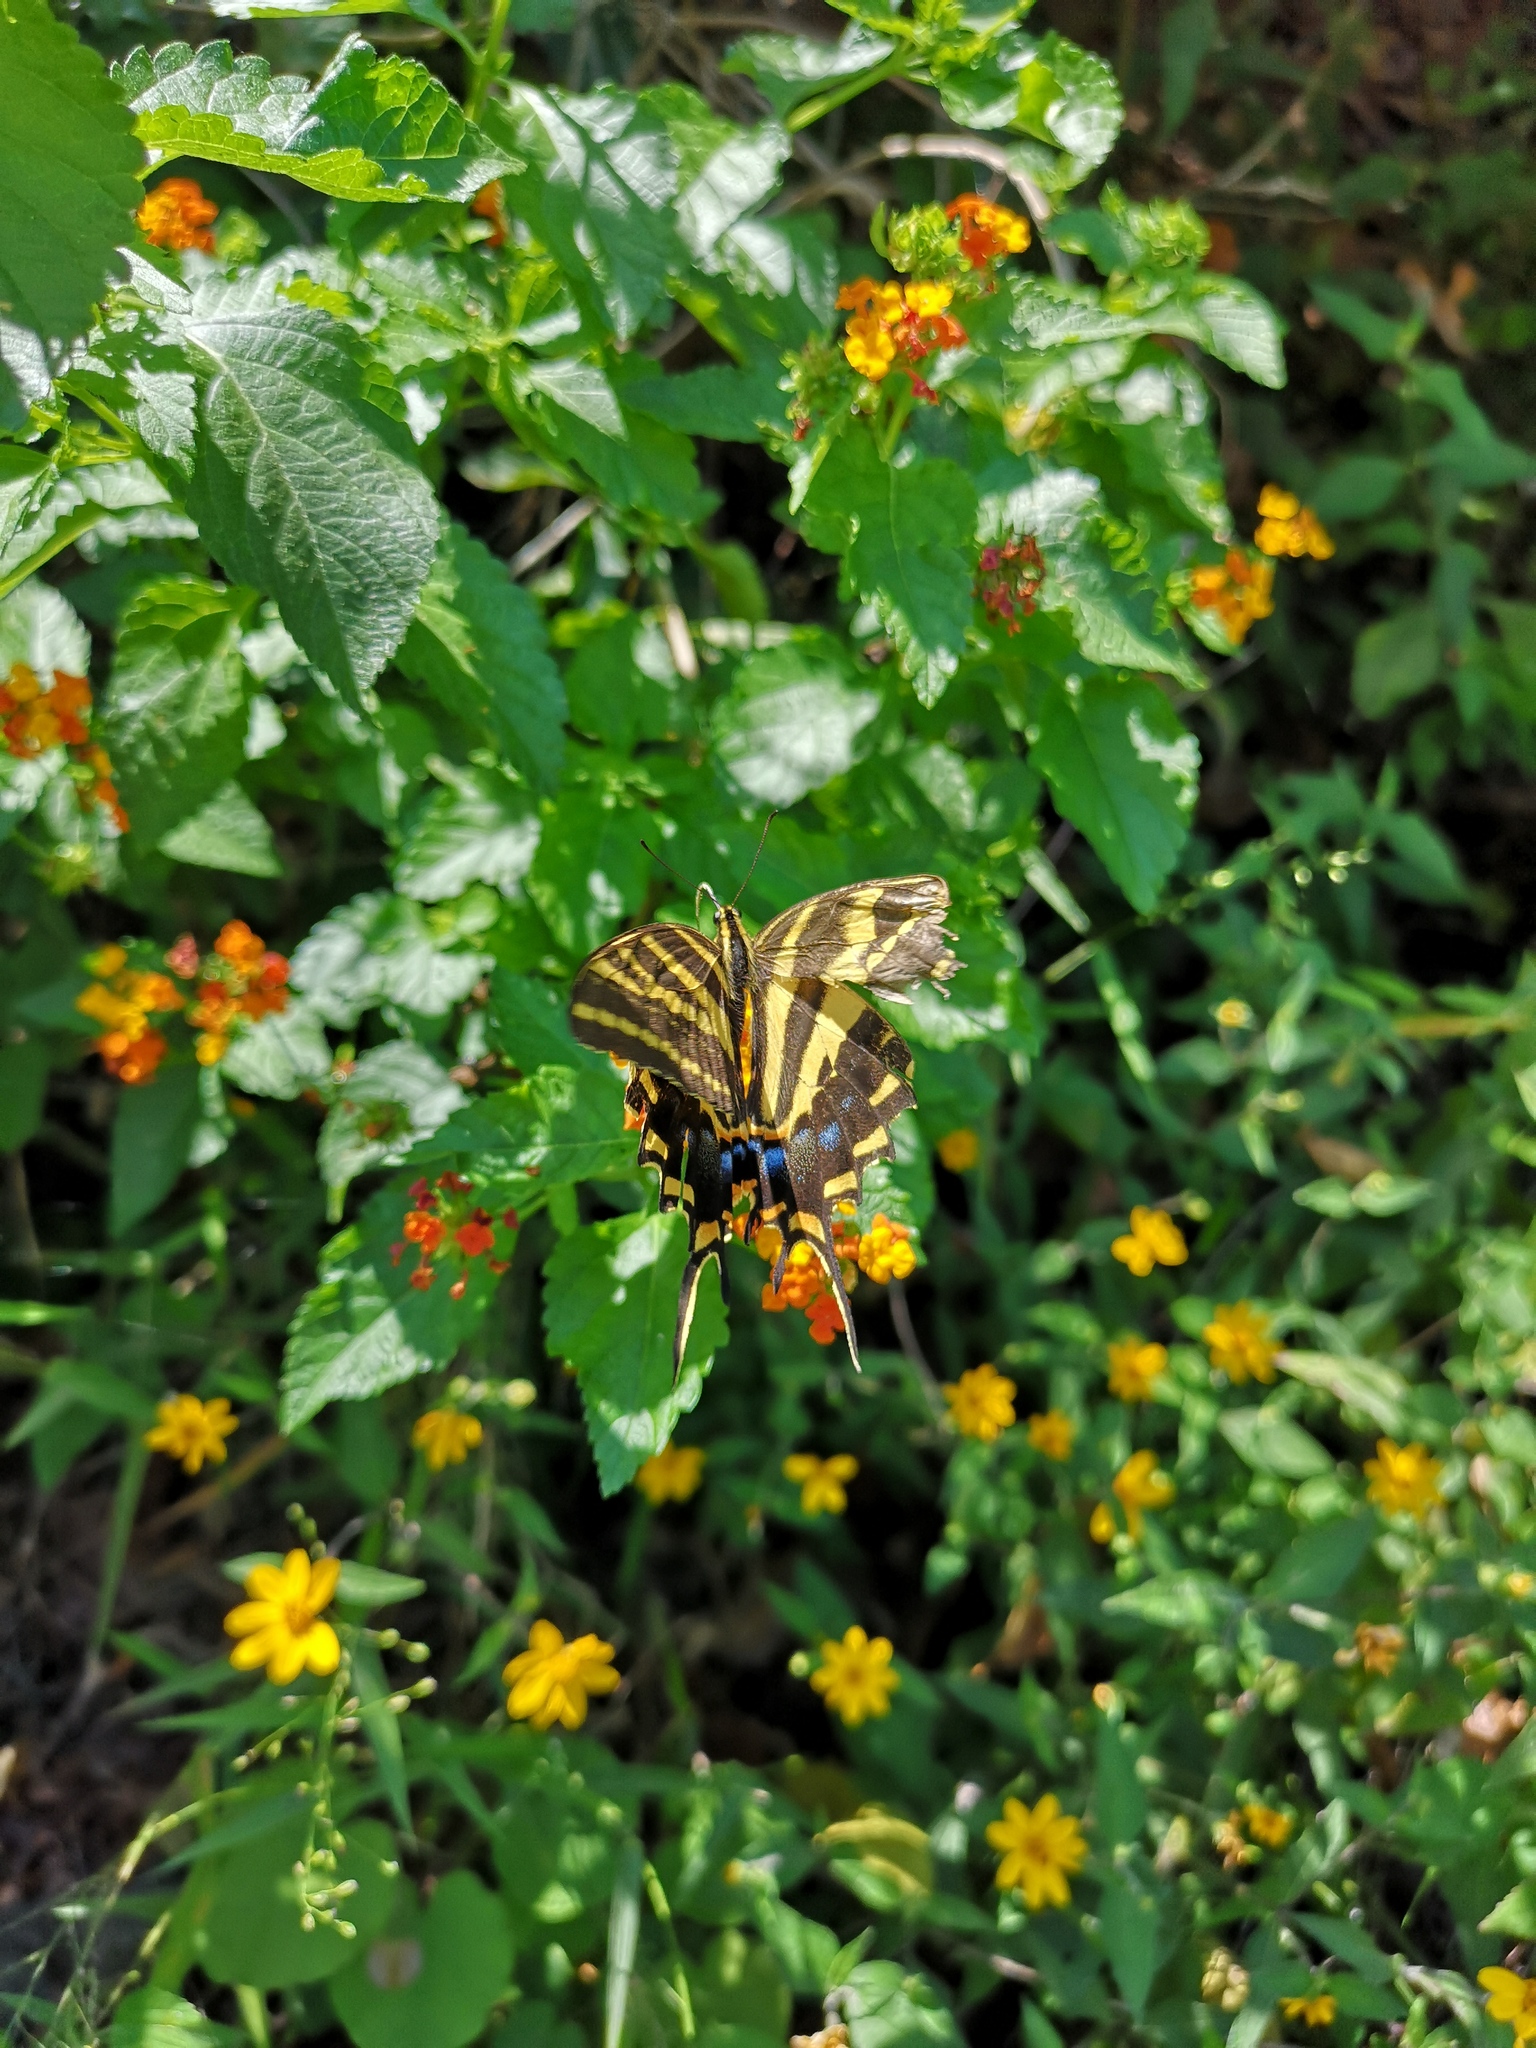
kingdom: Animalia
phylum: Arthropoda
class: Insecta
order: Lepidoptera
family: Papilionidae
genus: Papilio
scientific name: Papilio pilumnus
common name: Three-tailed tiger swallowtail
